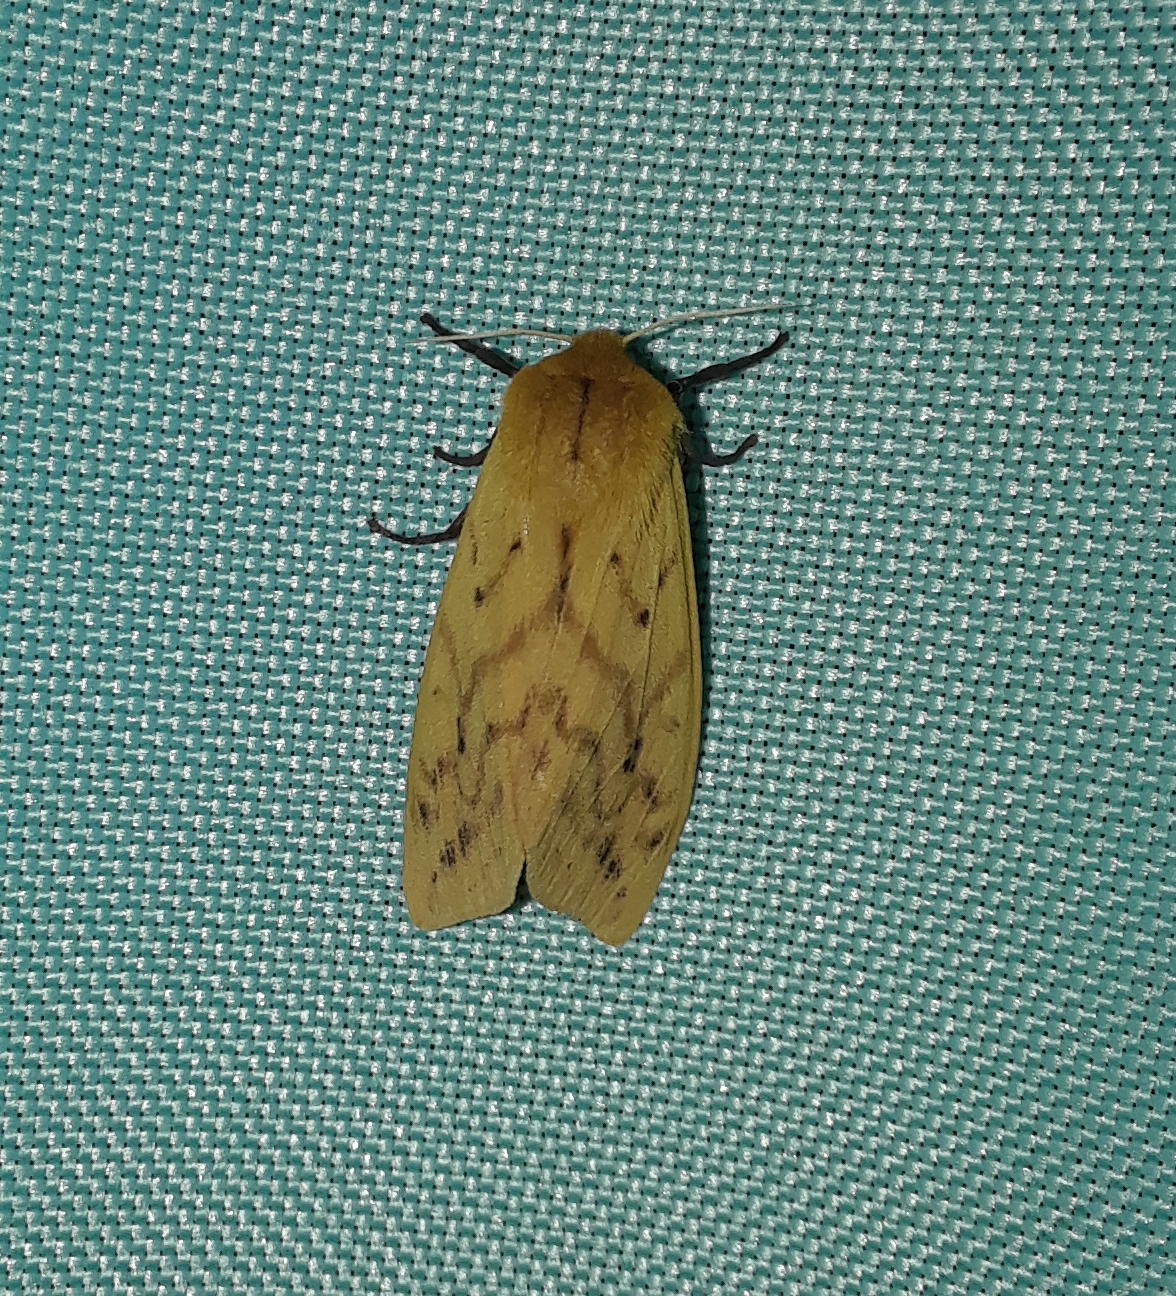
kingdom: Animalia
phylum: Arthropoda
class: Insecta
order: Lepidoptera
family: Erebidae
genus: Pyrrharctia
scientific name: Pyrrharctia isabella
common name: Isabella tiger moth
